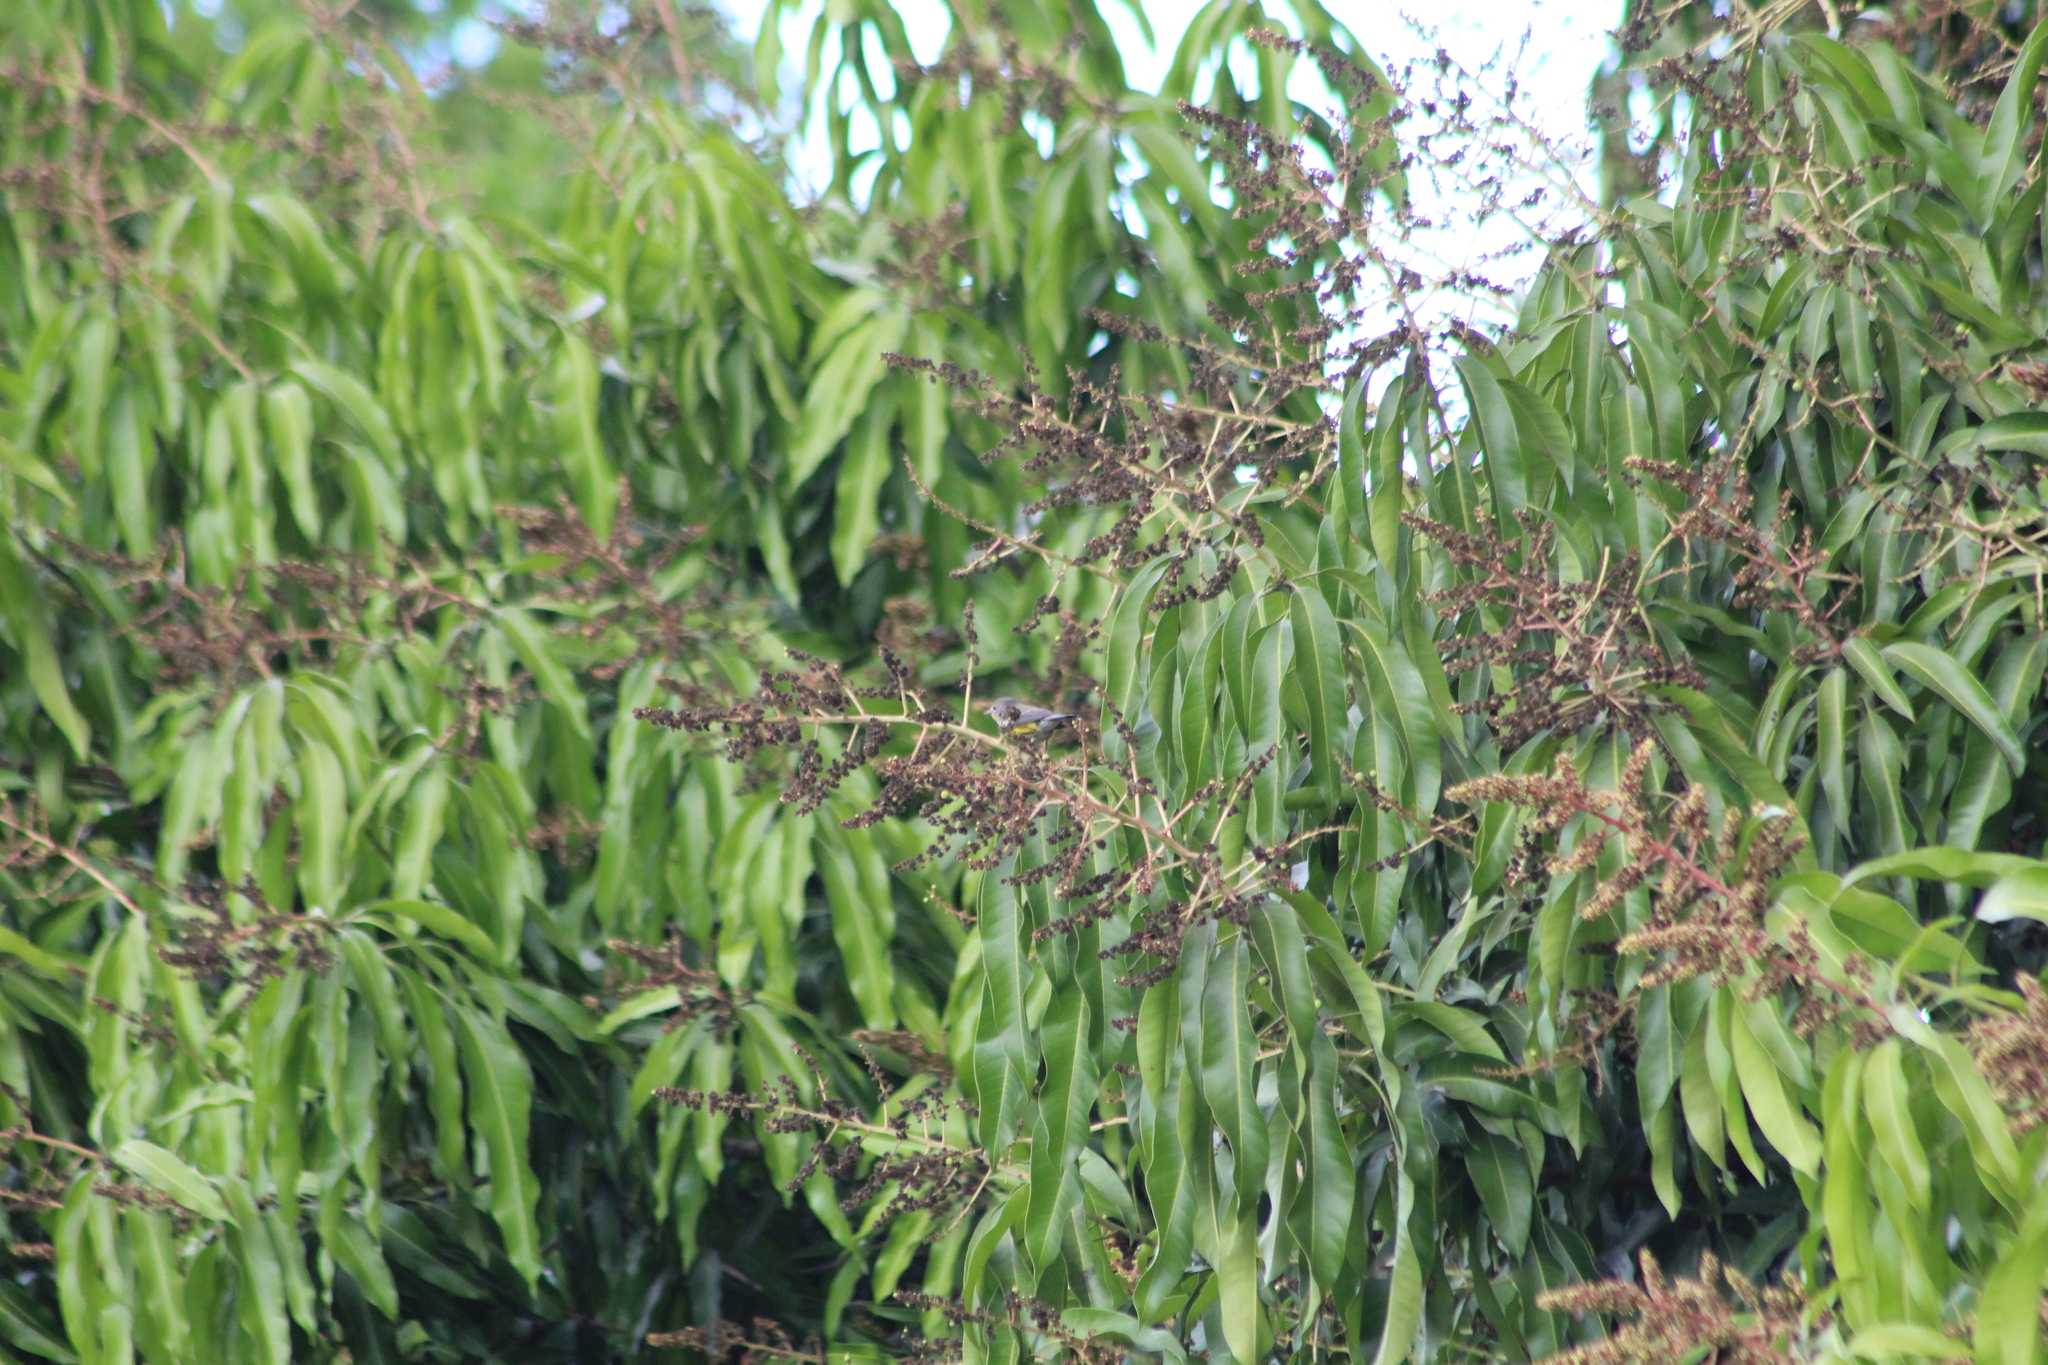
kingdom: Animalia
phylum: Chordata
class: Aves
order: Passeriformes
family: Parulidae
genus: Setophaga
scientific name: Setophaga magnolia
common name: Magnolia warbler
